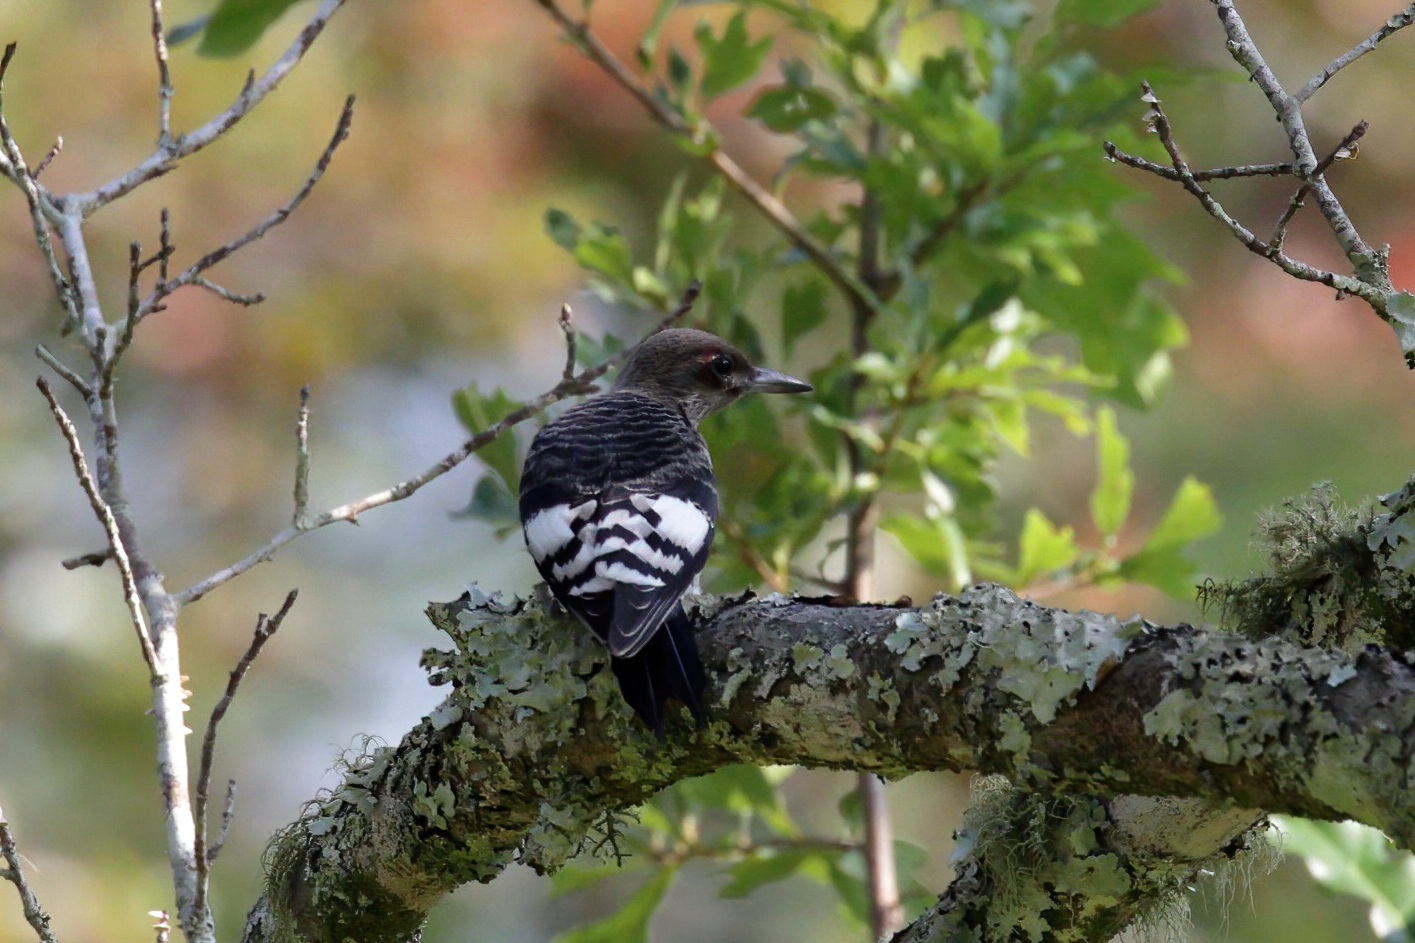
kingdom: Animalia
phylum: Chordata
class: Aves
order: Piciformes
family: Picidae
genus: Melanerpes
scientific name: Melanerpes erythrocephalus
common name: Red-headed woodpecker
